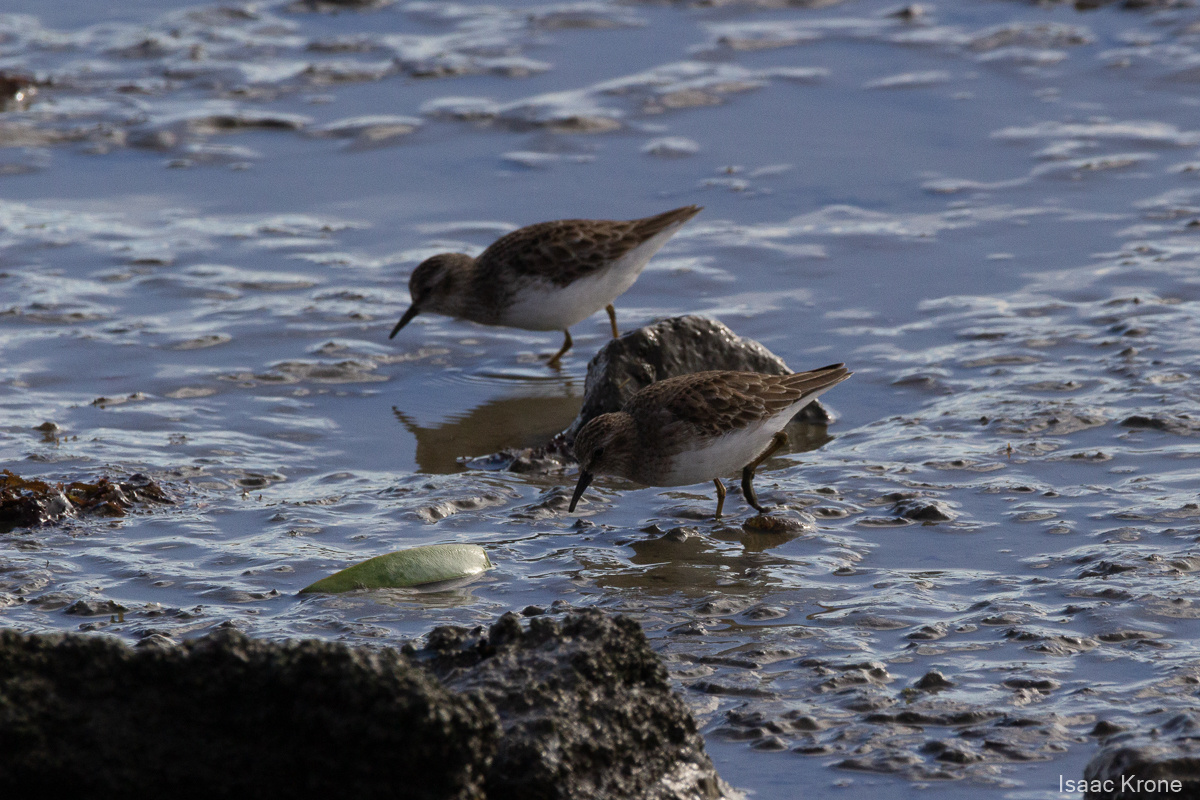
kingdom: Animalia
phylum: Chordata
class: Aves
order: Charadriiformes
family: Scolopacidae
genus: Calidris
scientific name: Calidris minutilla
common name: Least sandpiper
